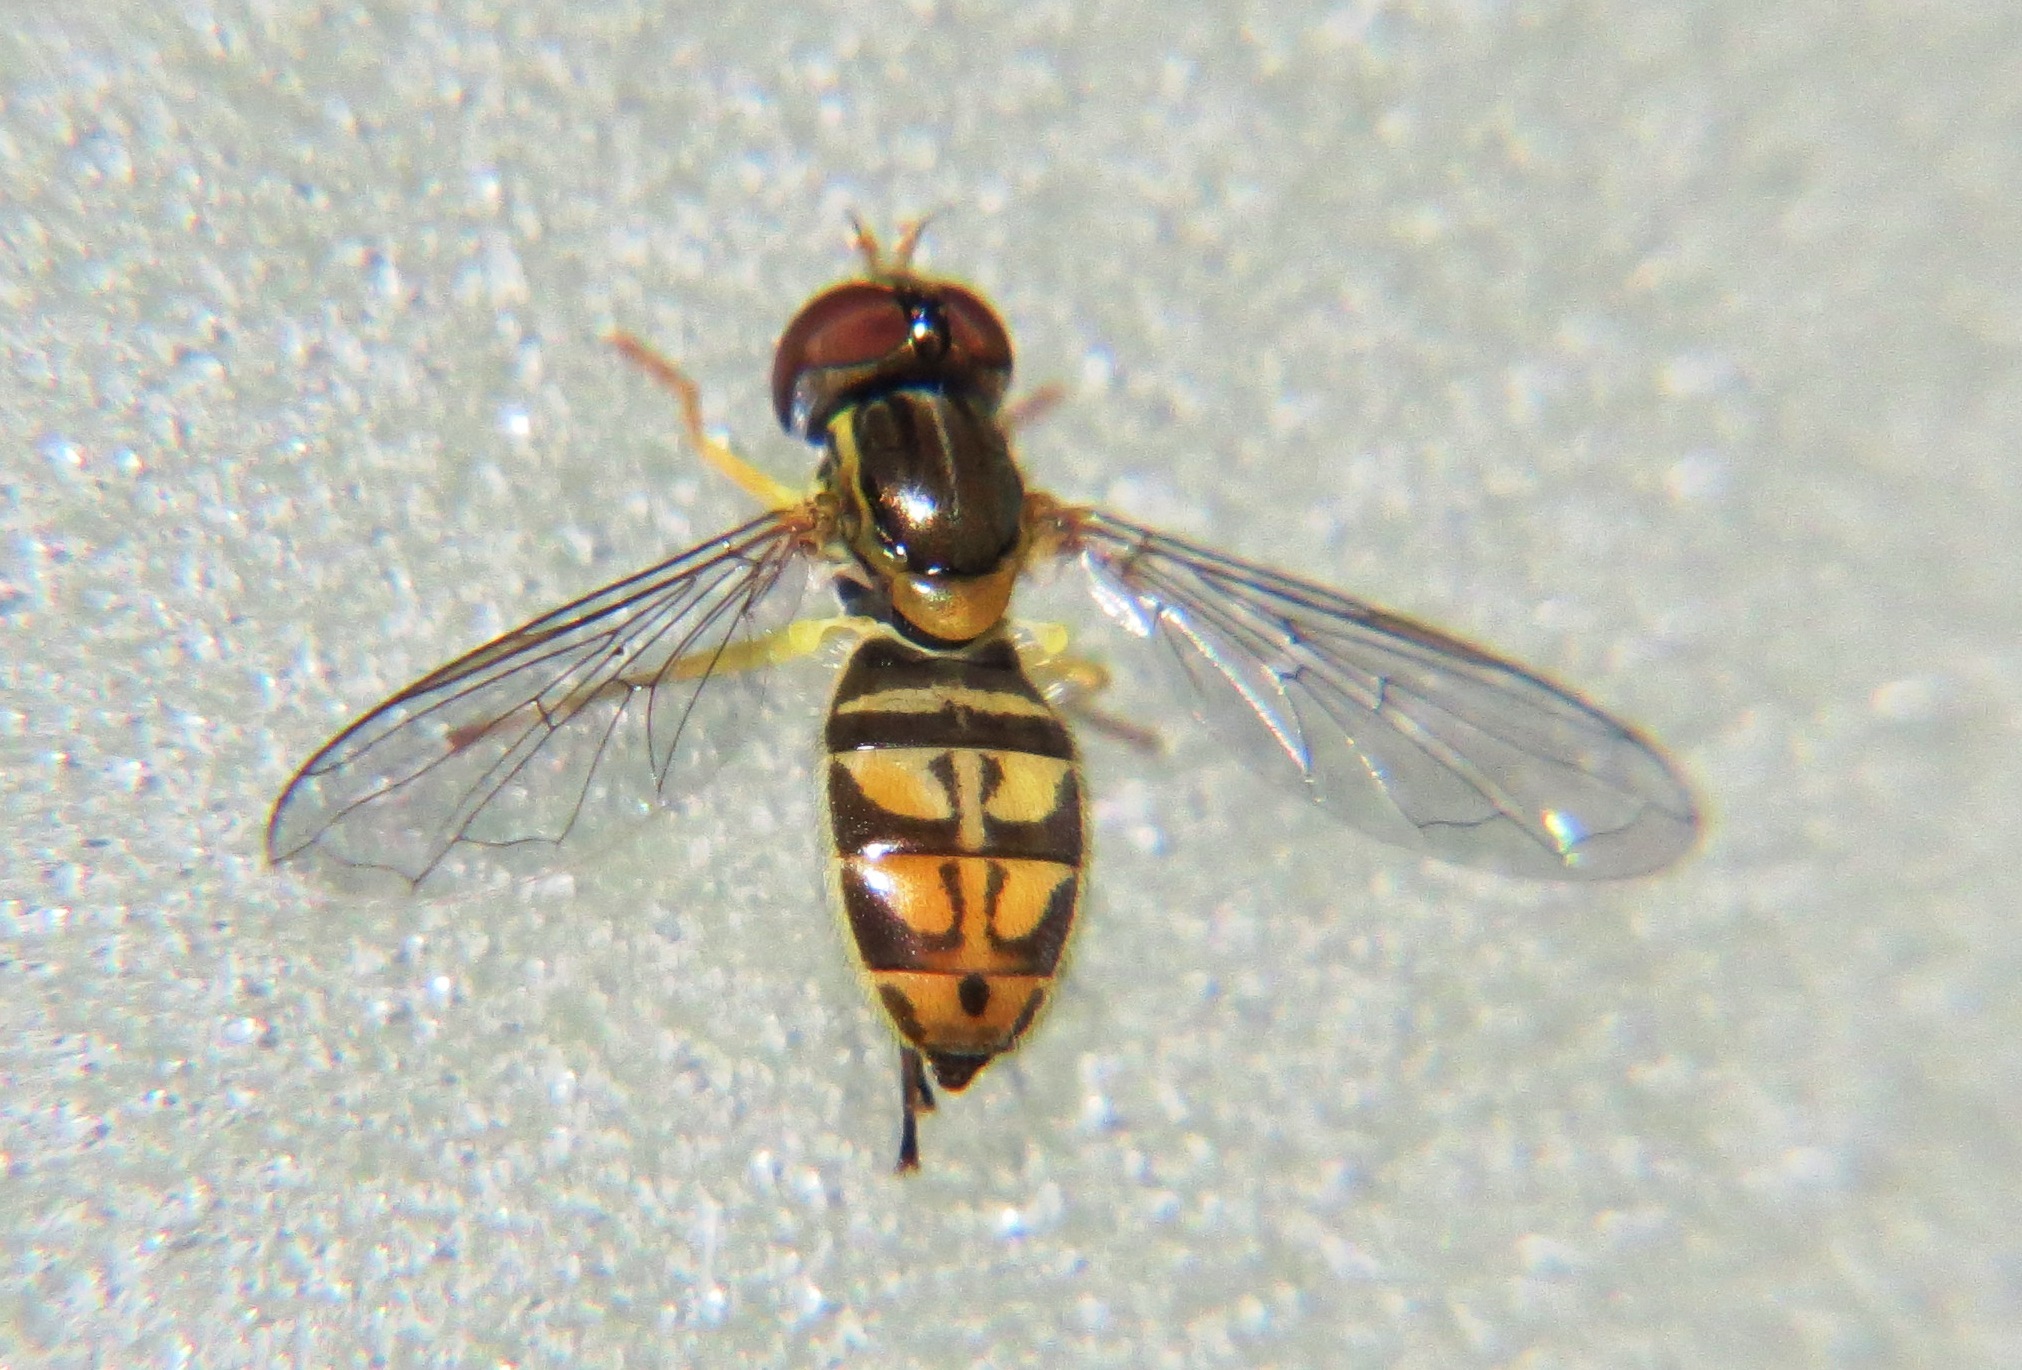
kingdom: Animalia
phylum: Arthropoda
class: Insecta
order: Diptera
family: Syrphidae
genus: Toxomerus
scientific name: Toxomerus marginatus
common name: Syrphid fly
